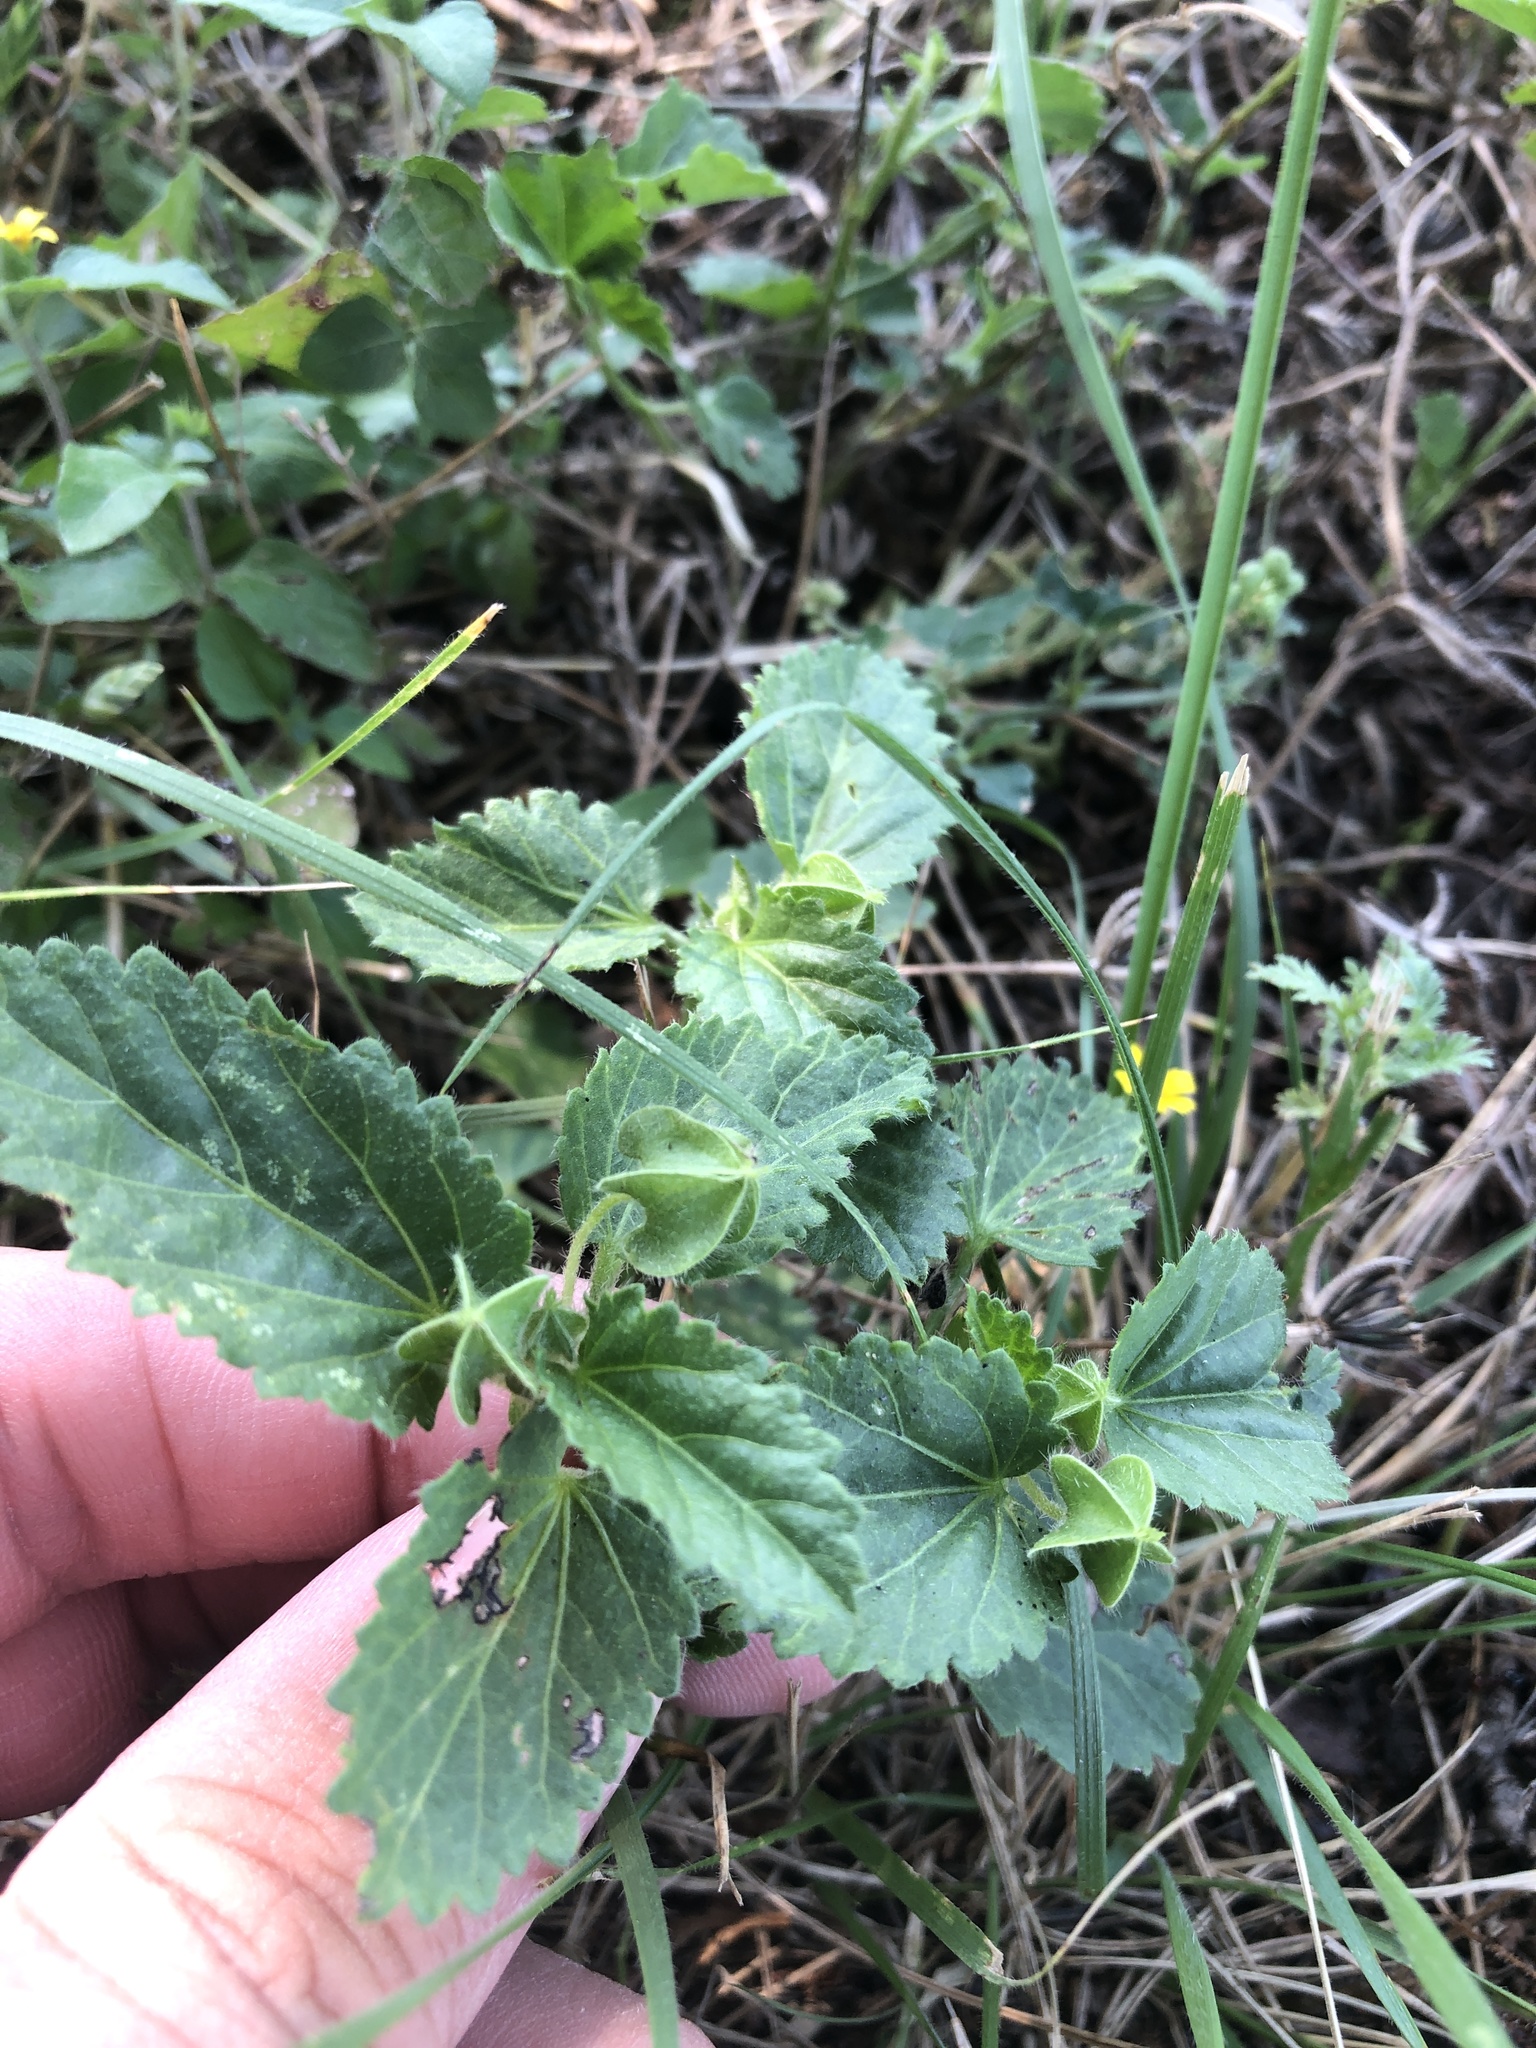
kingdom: Plantae
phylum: Tracheophyta
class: Magnoliopsida
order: Malvales
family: Malvaceae
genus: Rhynchosida
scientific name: Rhynchosida physocalyx
